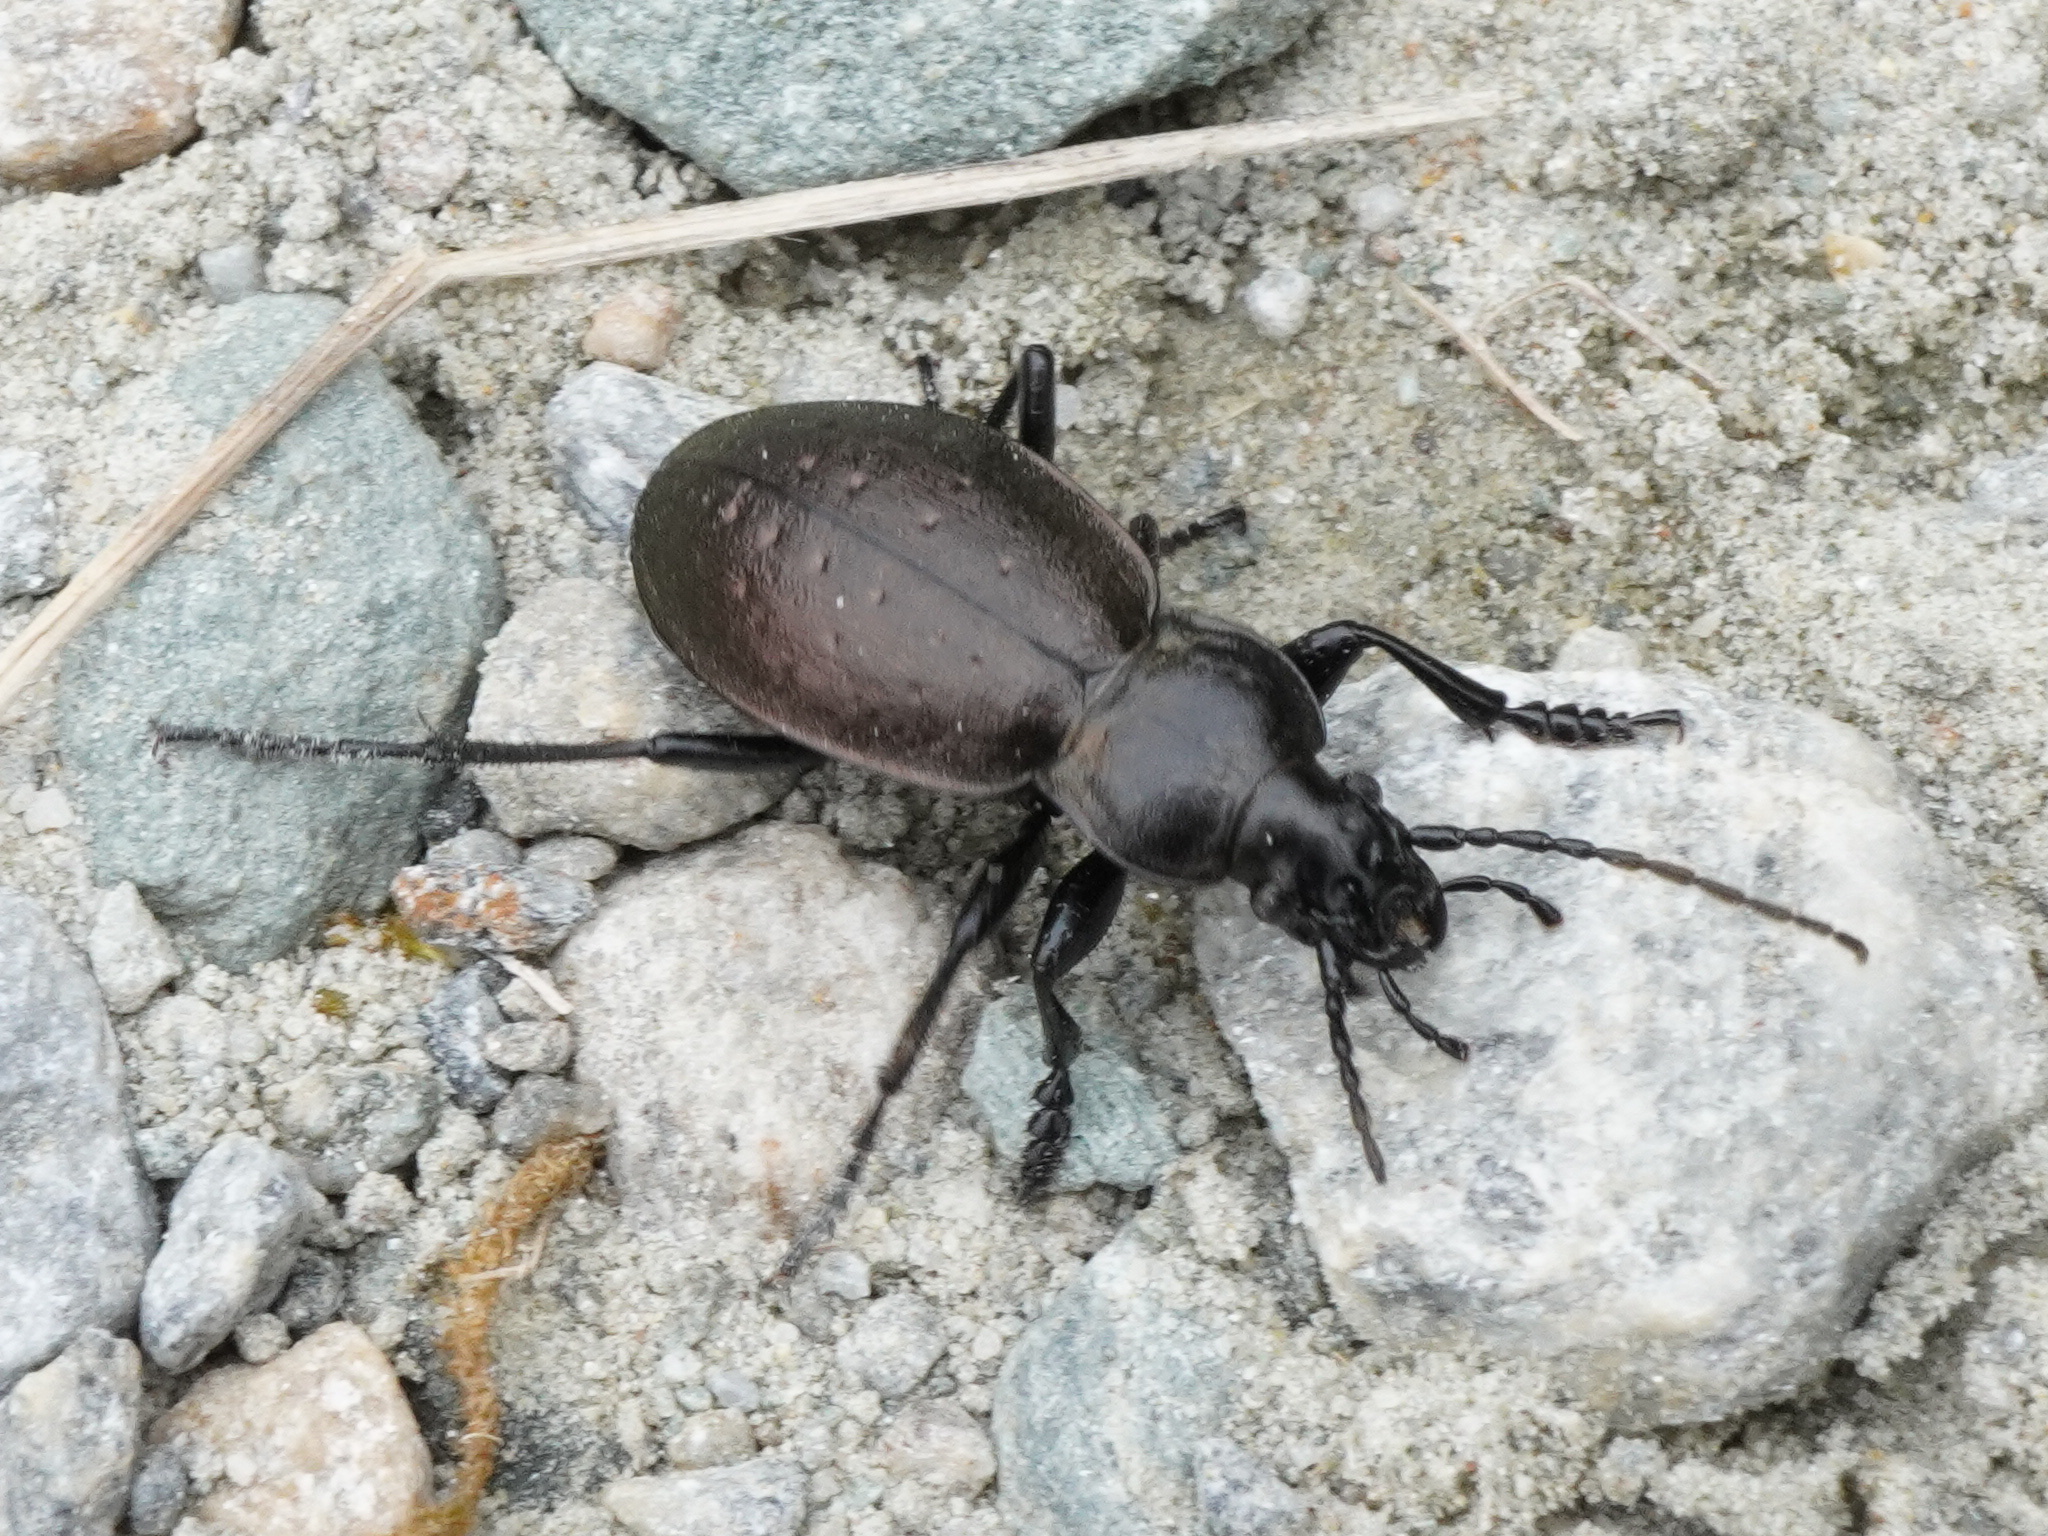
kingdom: Animalia
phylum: Arthropoda
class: Insecta
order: Coleoptera
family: Carabidae
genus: Carabus
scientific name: Carabus alpestris
